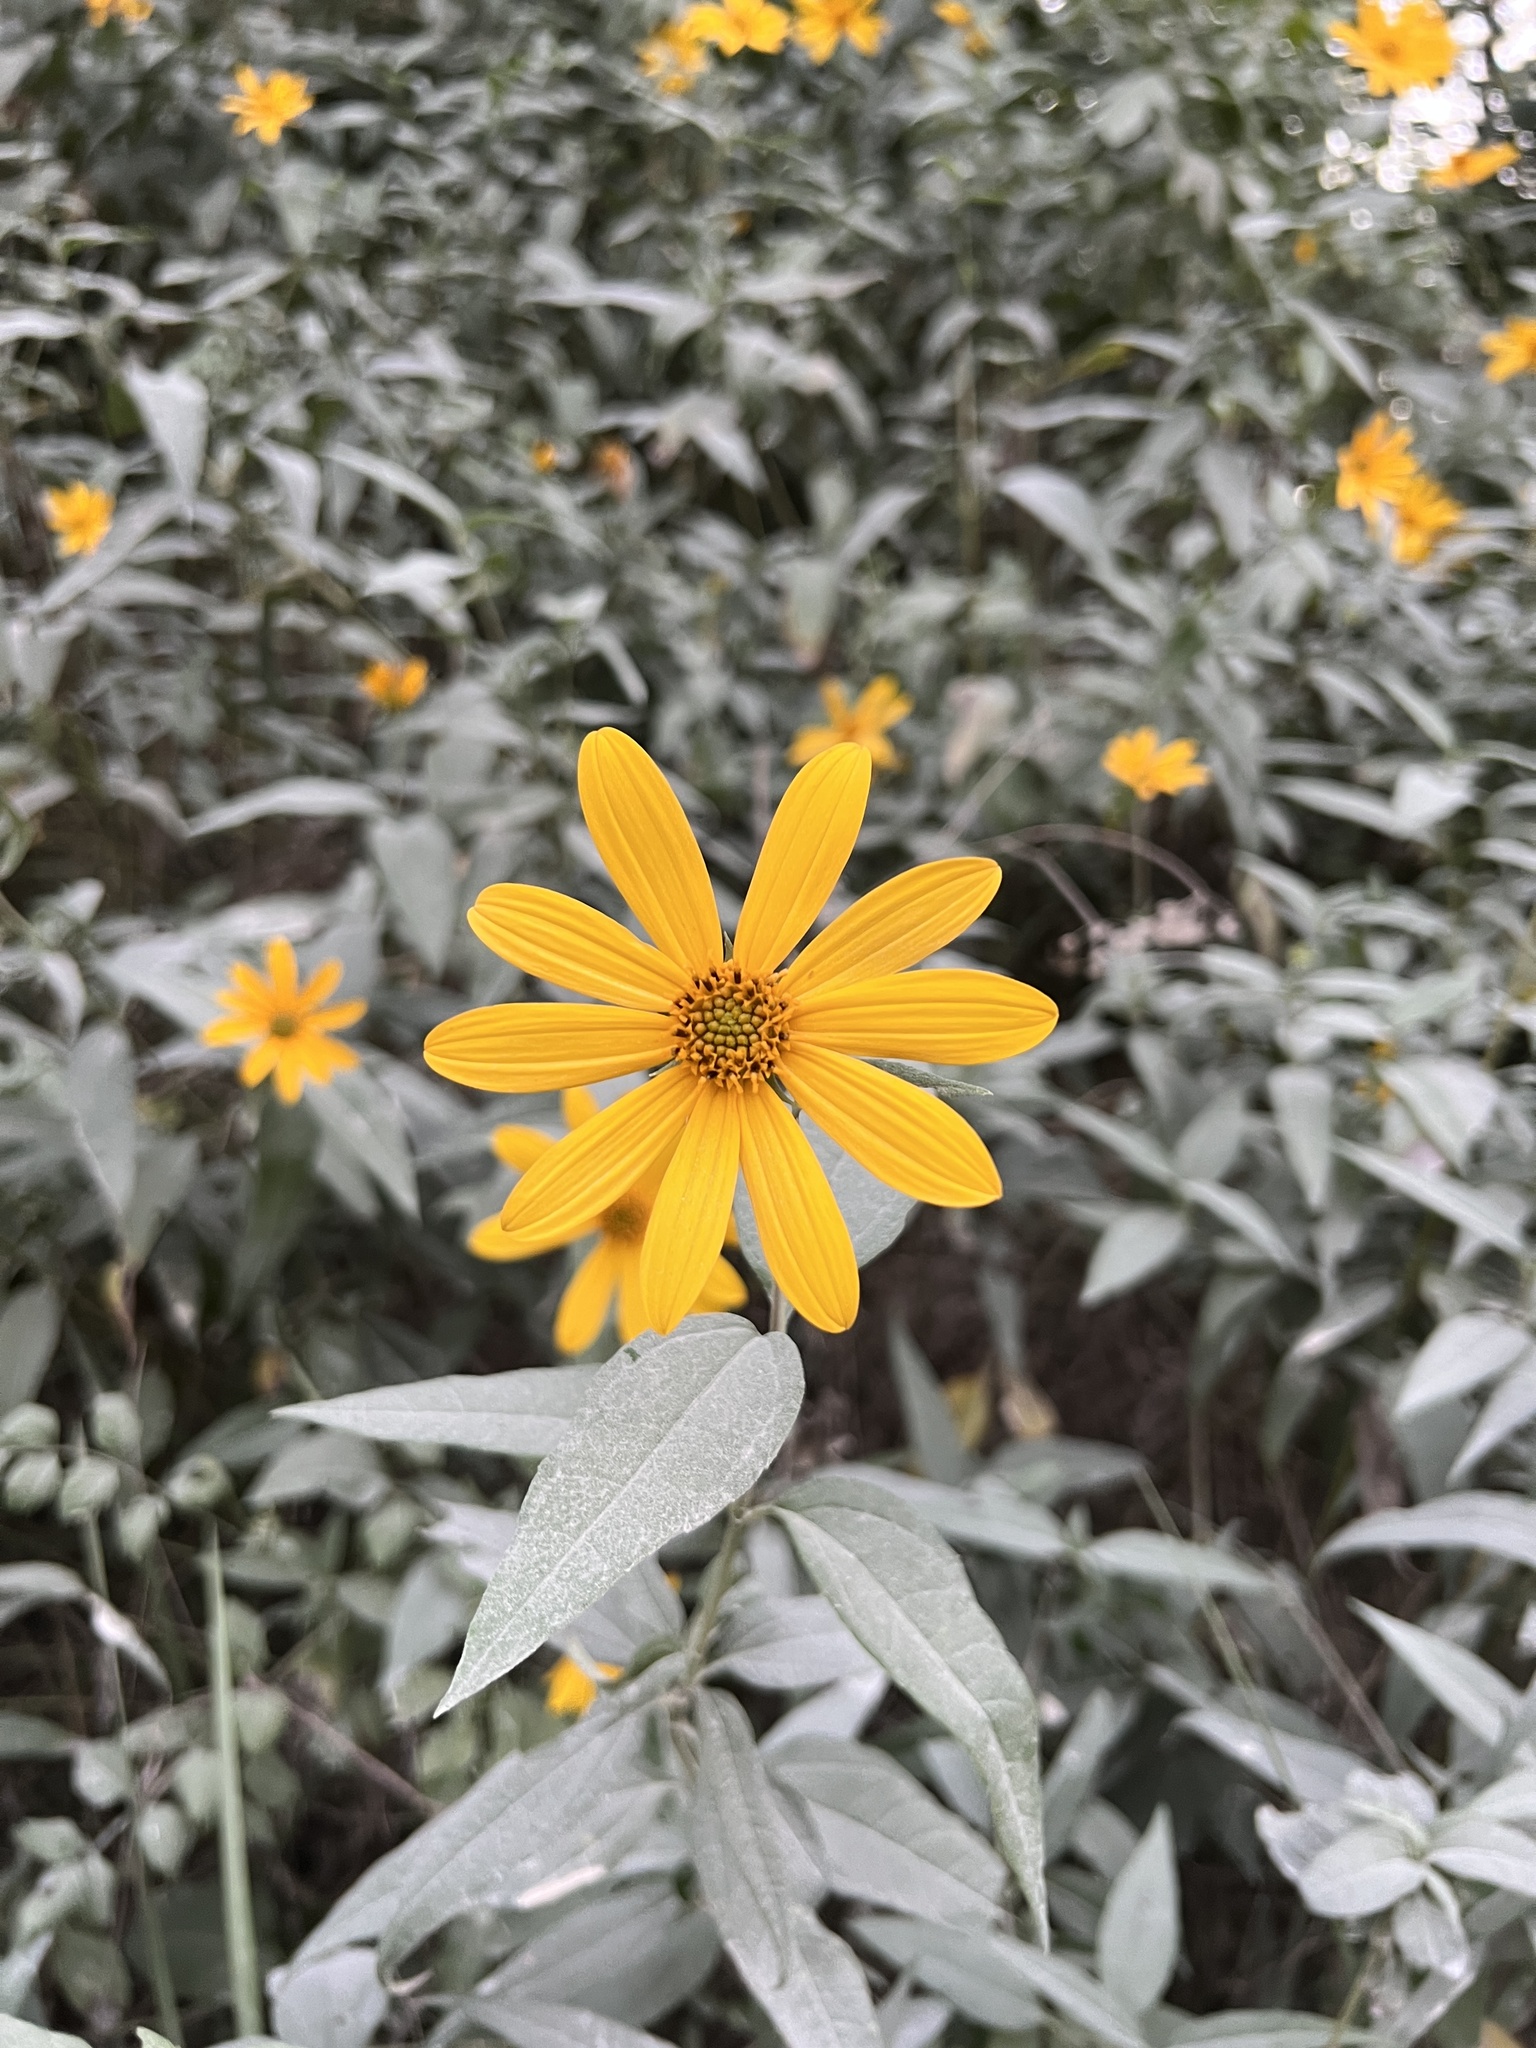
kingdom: Plantae
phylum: Tracheophyta
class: Magnoliopsida
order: Asterales
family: Asteraceae
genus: Helianthus
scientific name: Helianthus strumosus
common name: Pale-leaved sunflower
